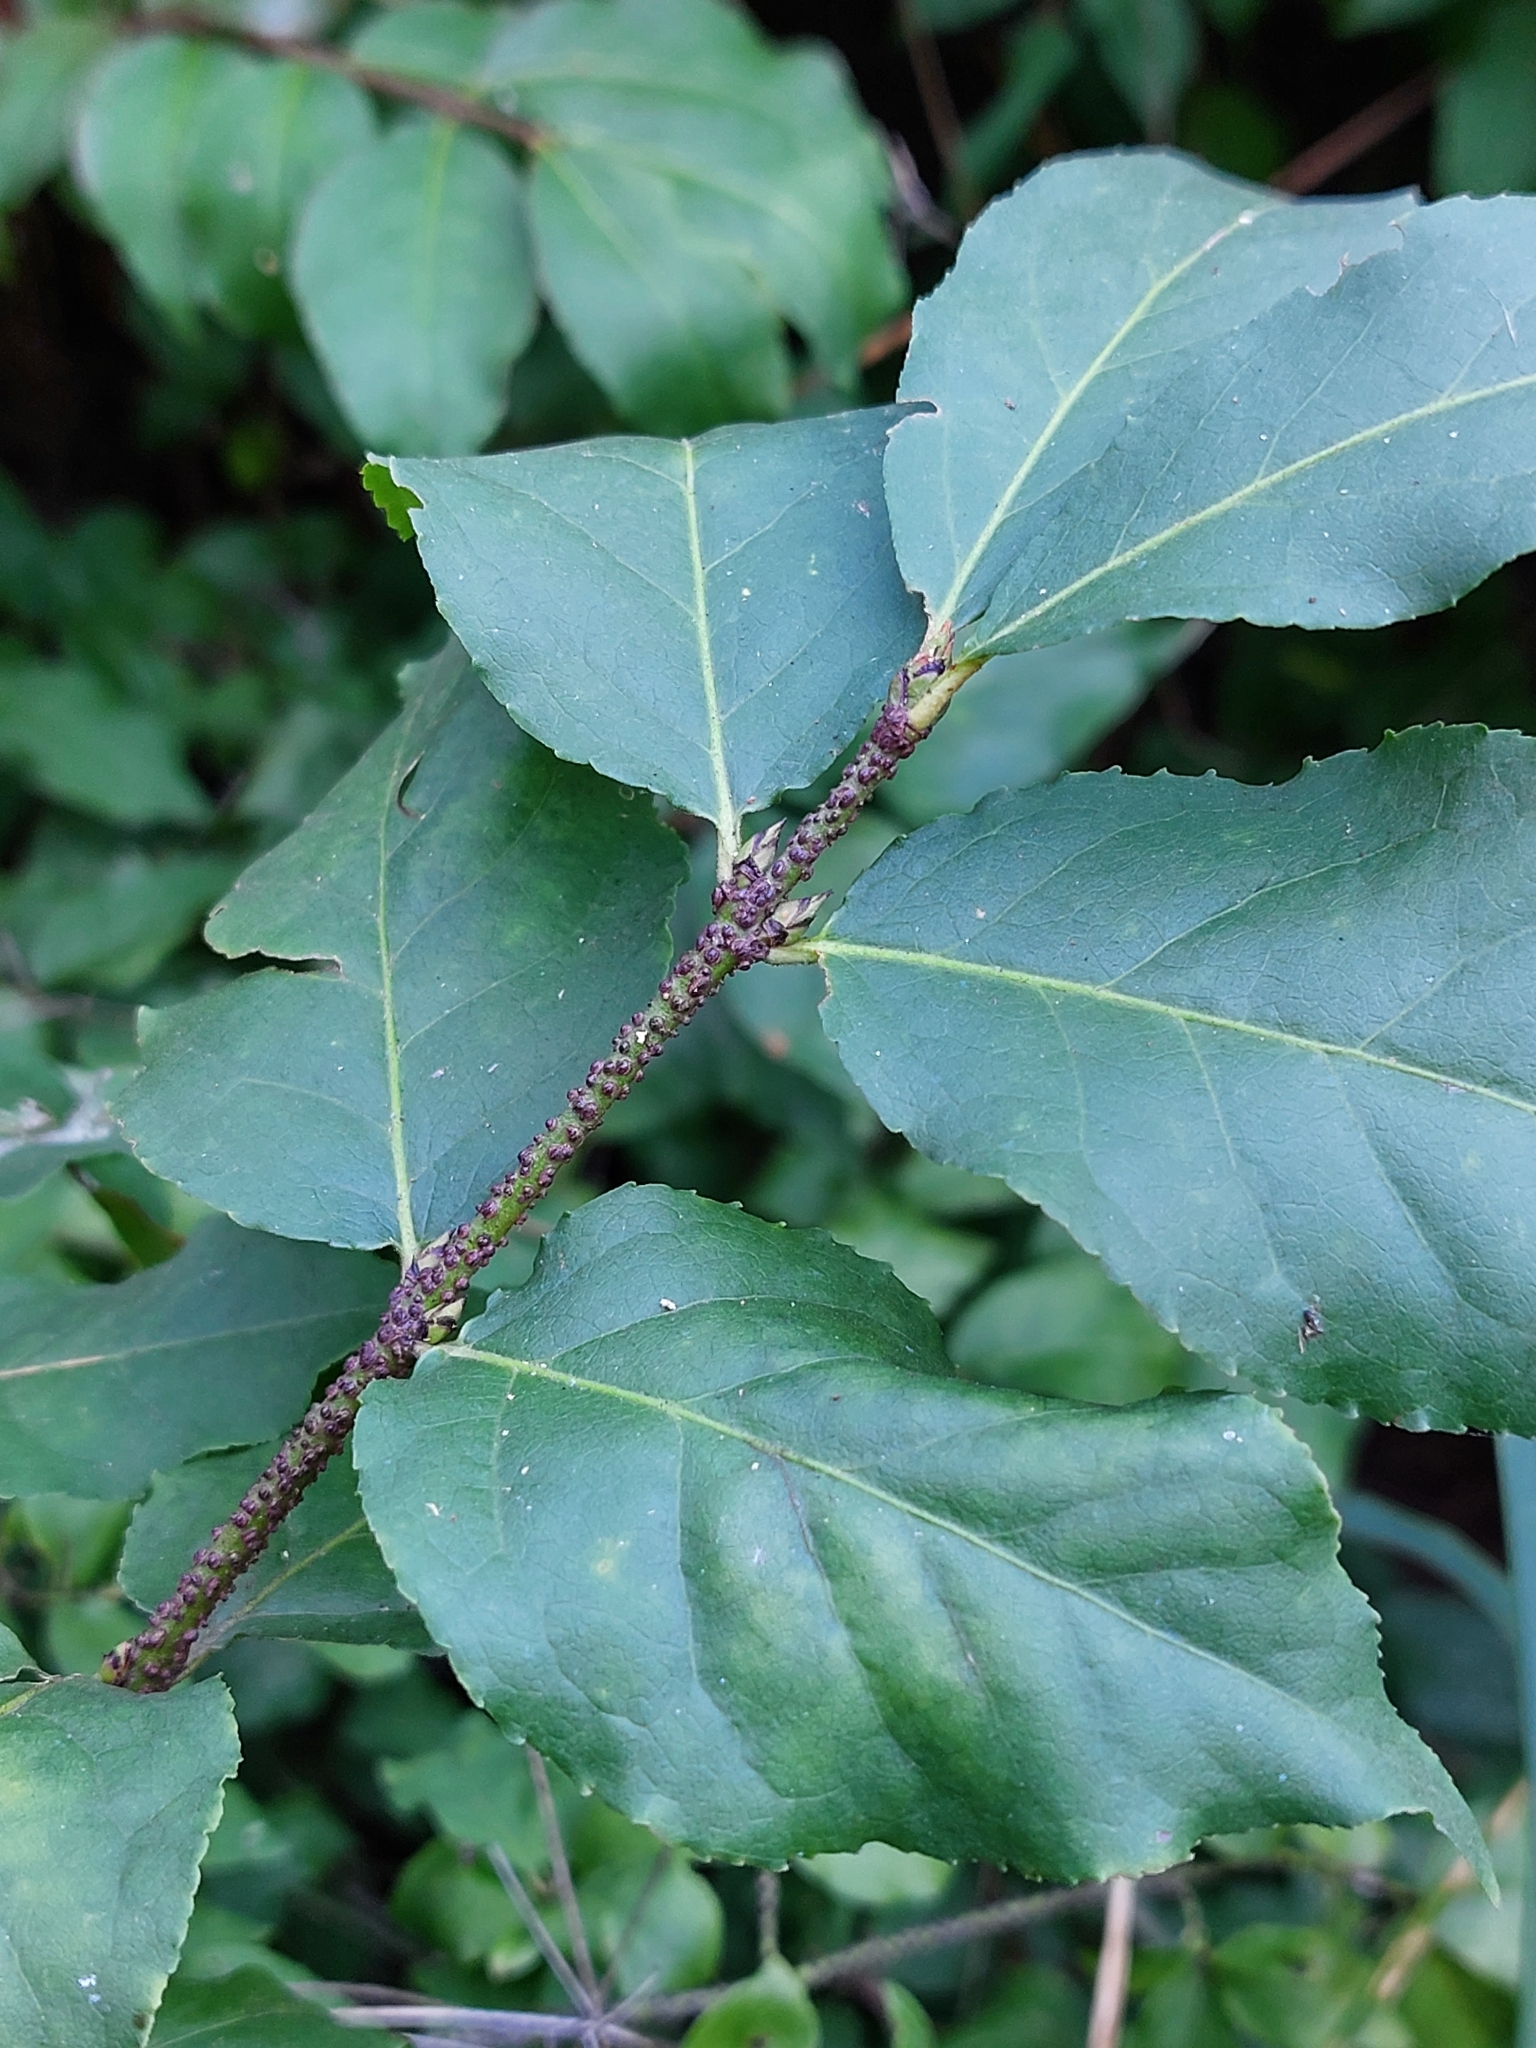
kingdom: Plantae
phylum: Tracheophyta
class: Magnoliopsida
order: Celastrales
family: Celastraceae
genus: Euonymus
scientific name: Euonymus verrucosus
